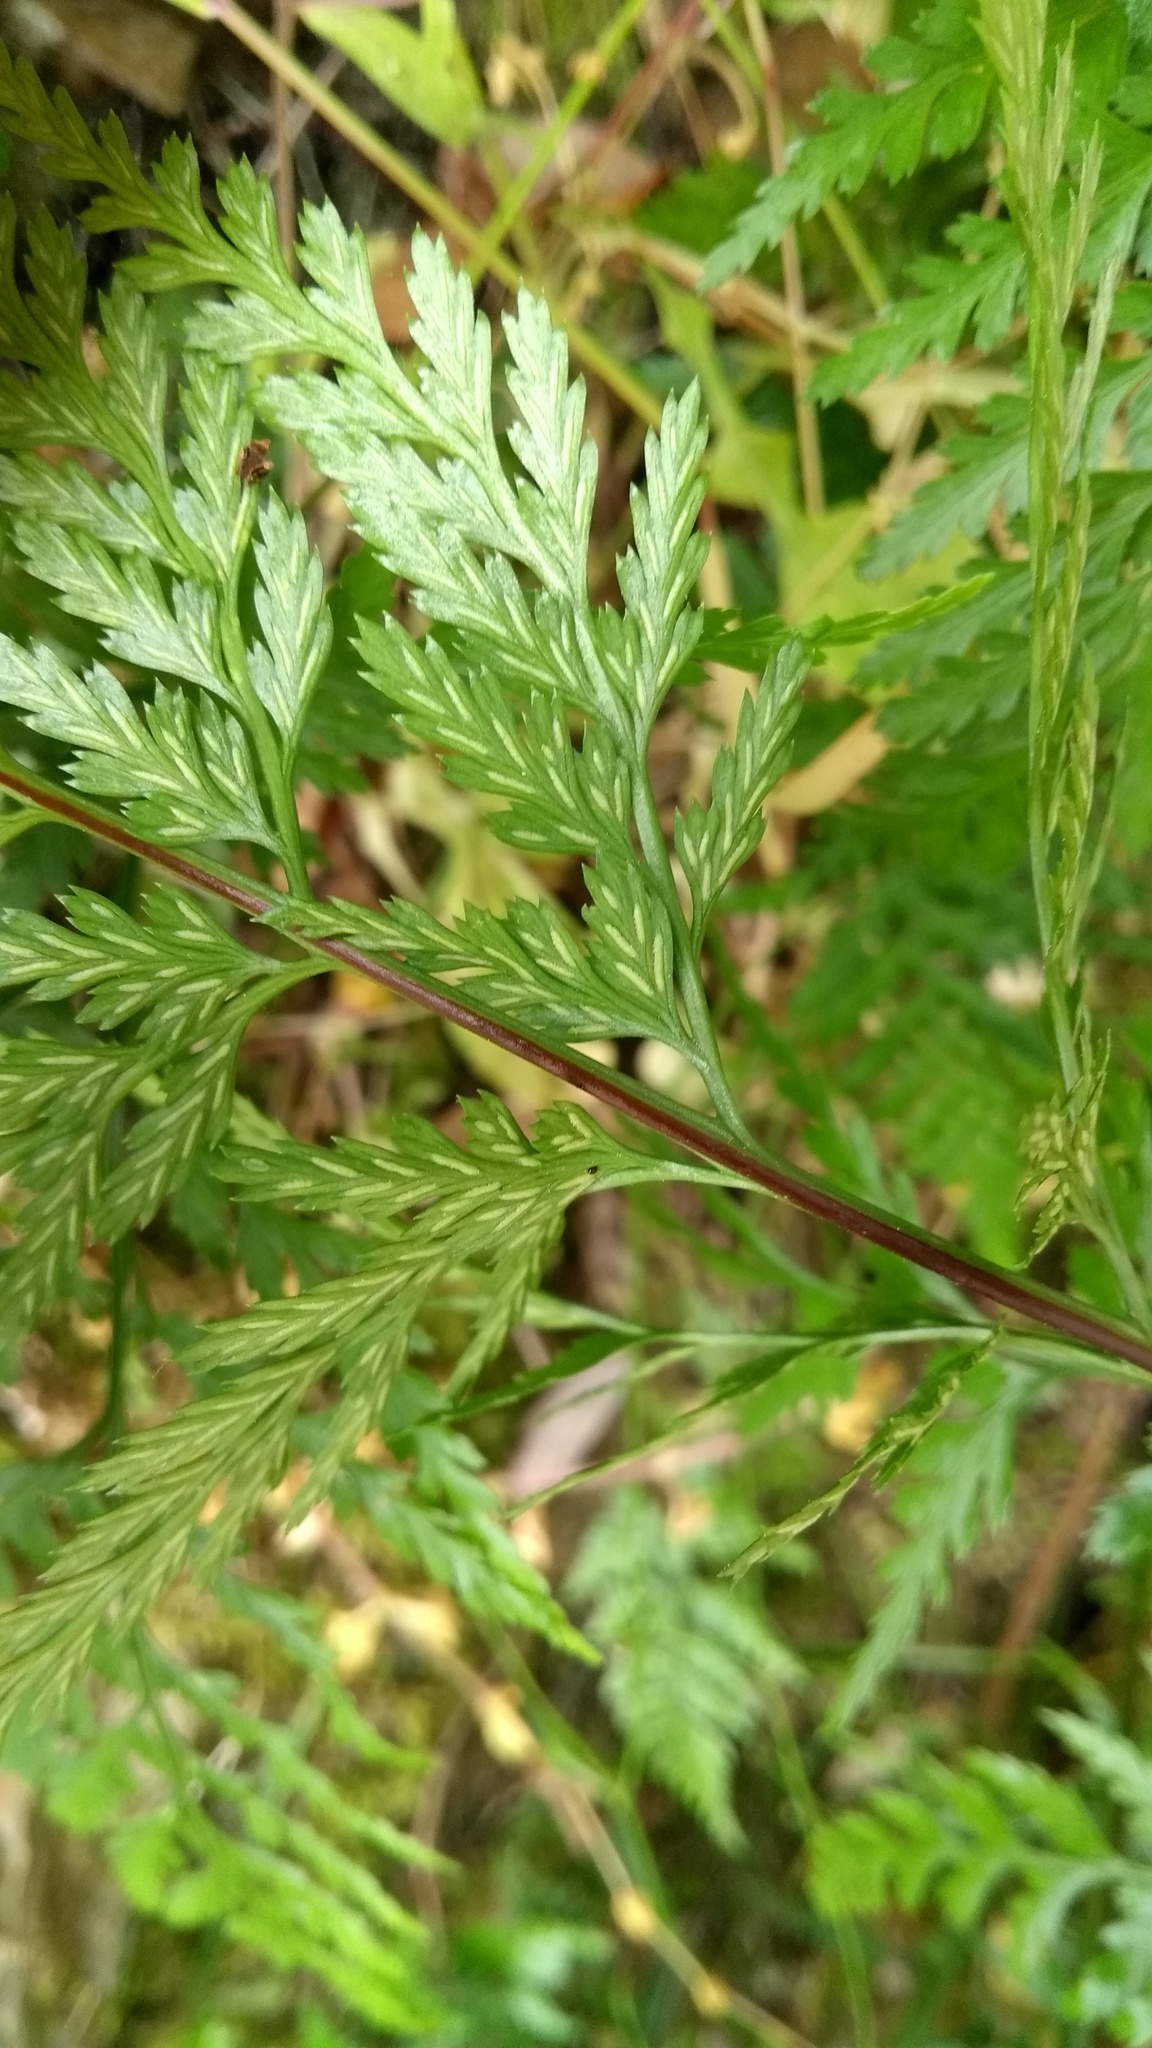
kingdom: Plantae
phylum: Tracheophyta
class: Polypodiopsida
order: Polypodiales
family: Aspleniaceae
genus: Asplenium
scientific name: Asplenium onopteris
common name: Irish spleenwort
